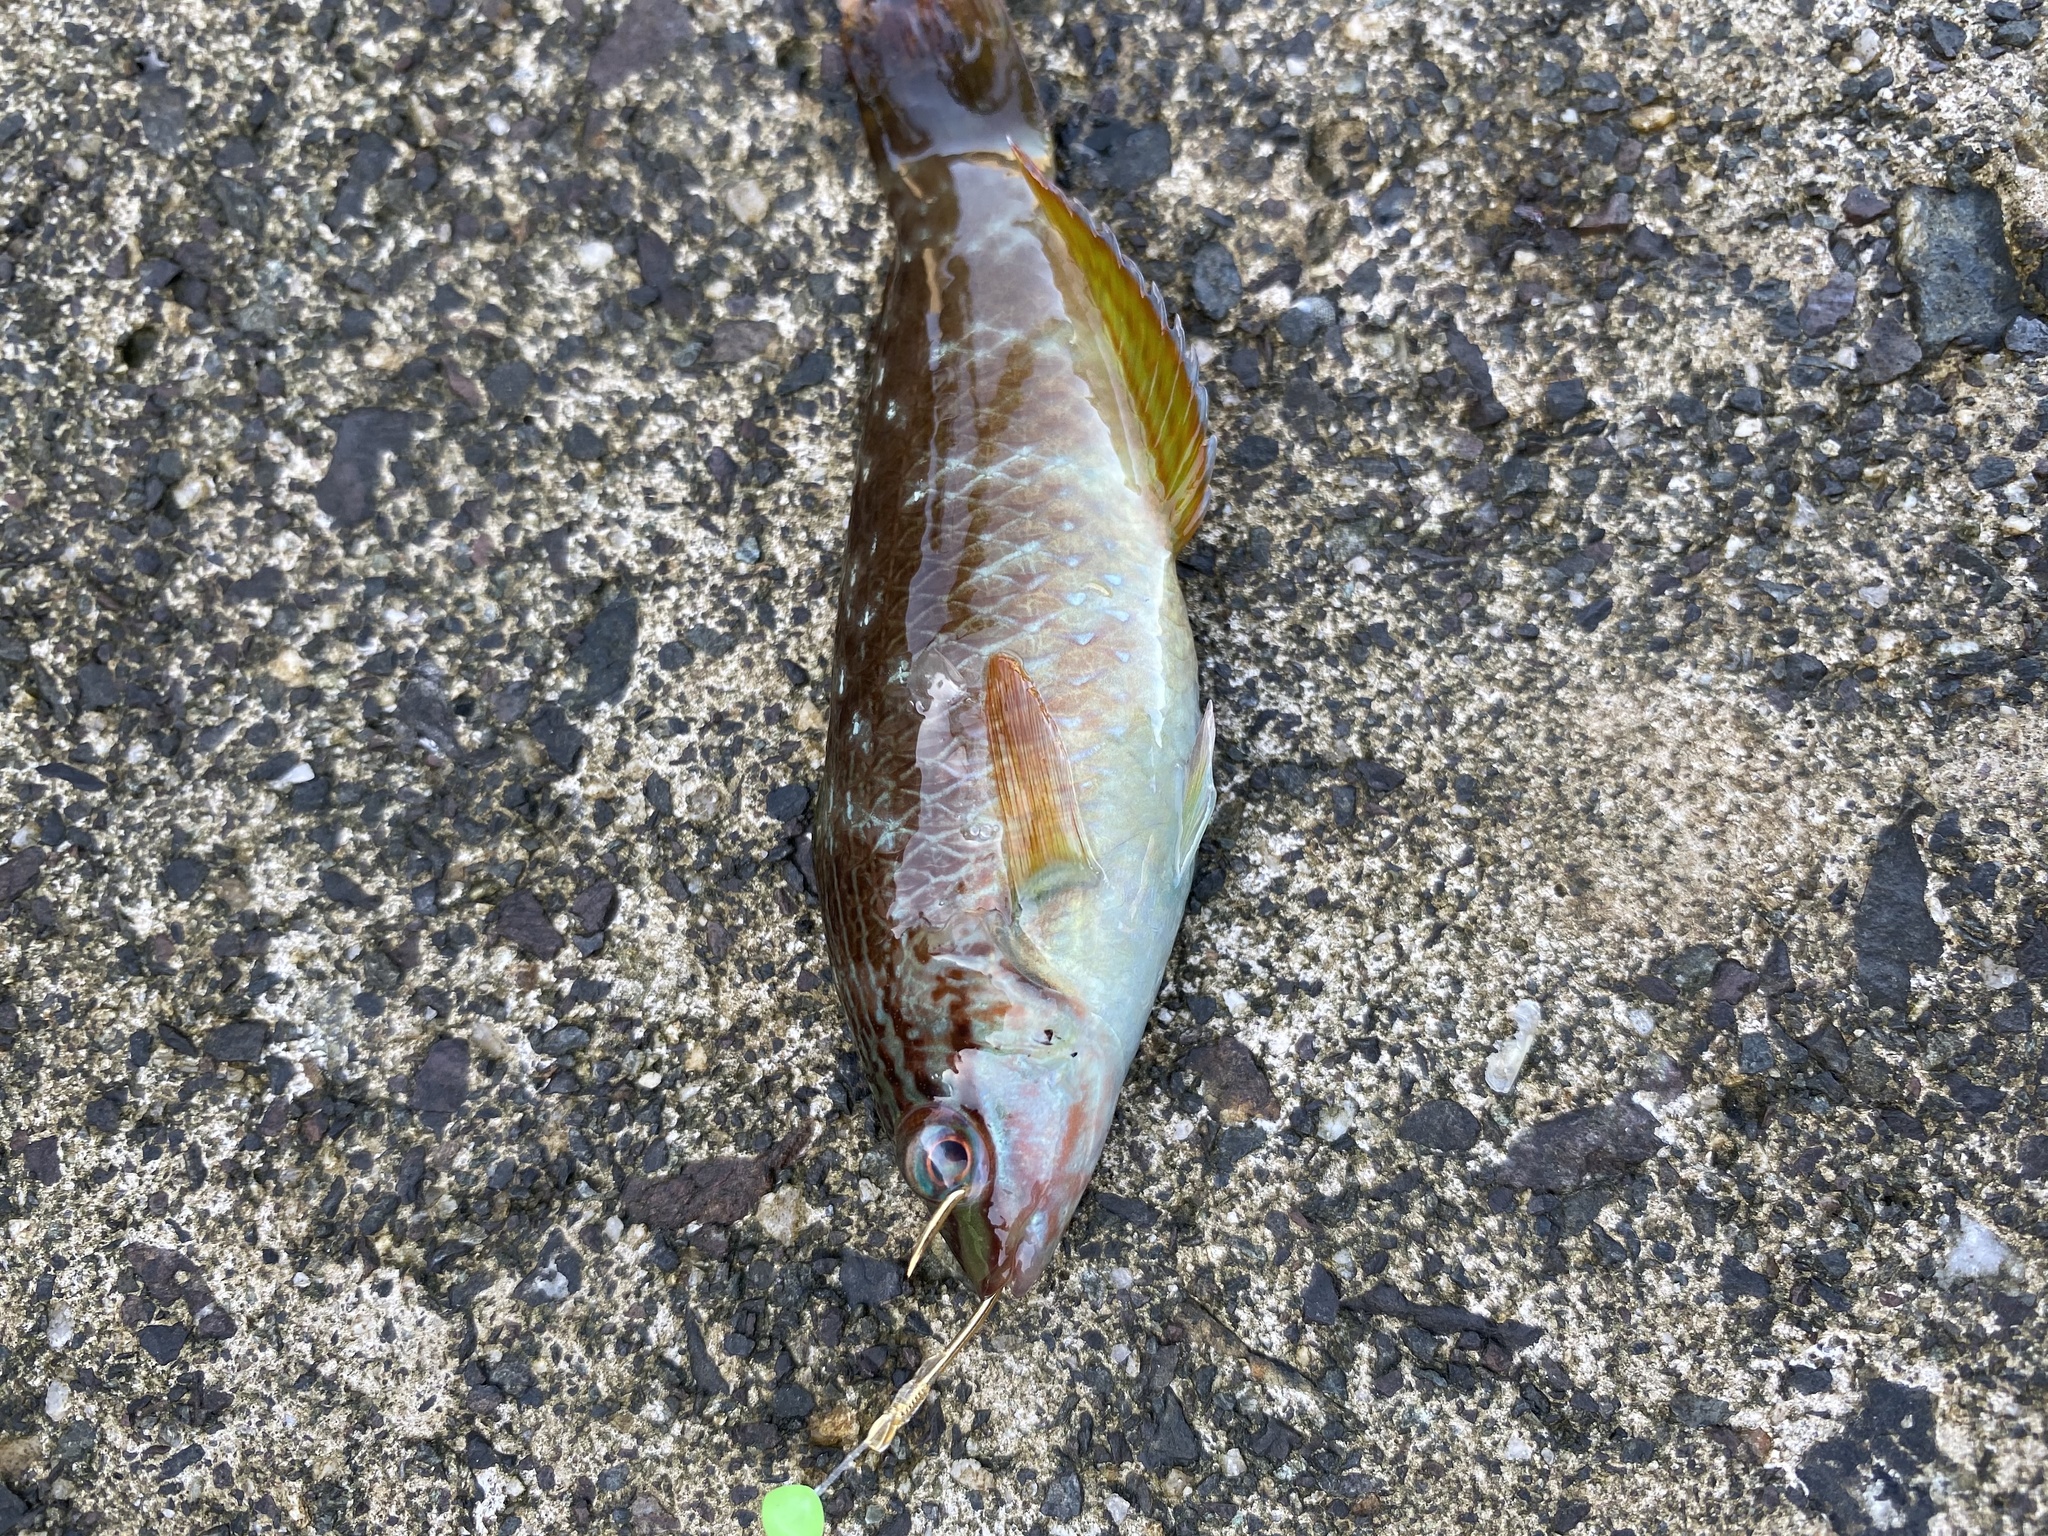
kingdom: Animalia
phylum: Chordata
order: Perciformes
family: Labridae
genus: Pseudolabrus
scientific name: Pseudolabrus sieboldi
